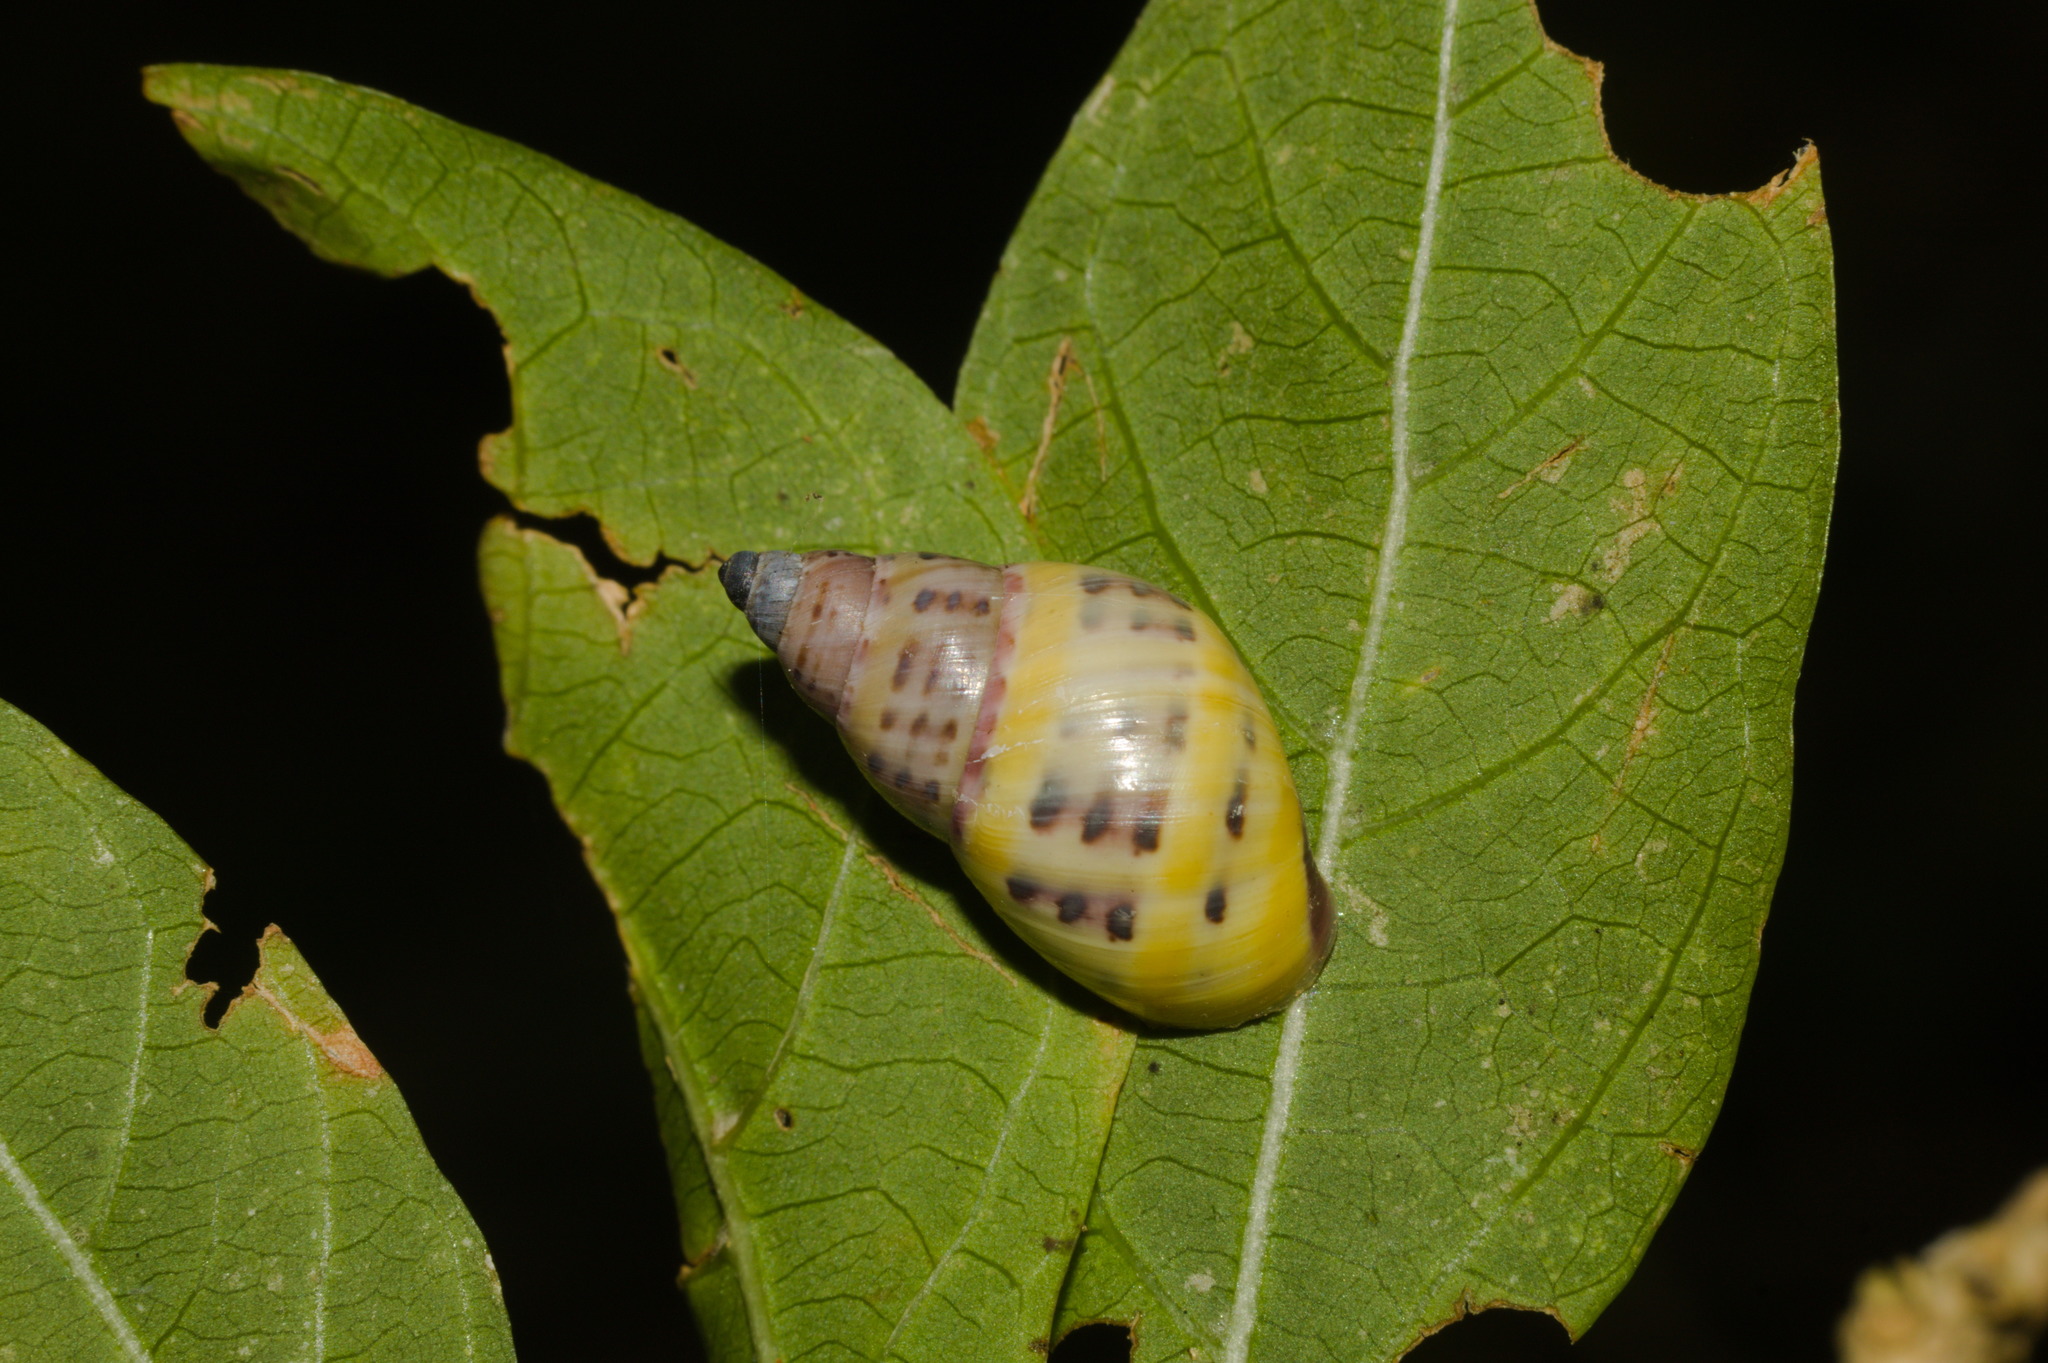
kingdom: Animalia
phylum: Mollusca
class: Gastropoda
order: Stylommatophora
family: Bulimulidae
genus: Drymaeus
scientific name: Drymaeus poecilus
